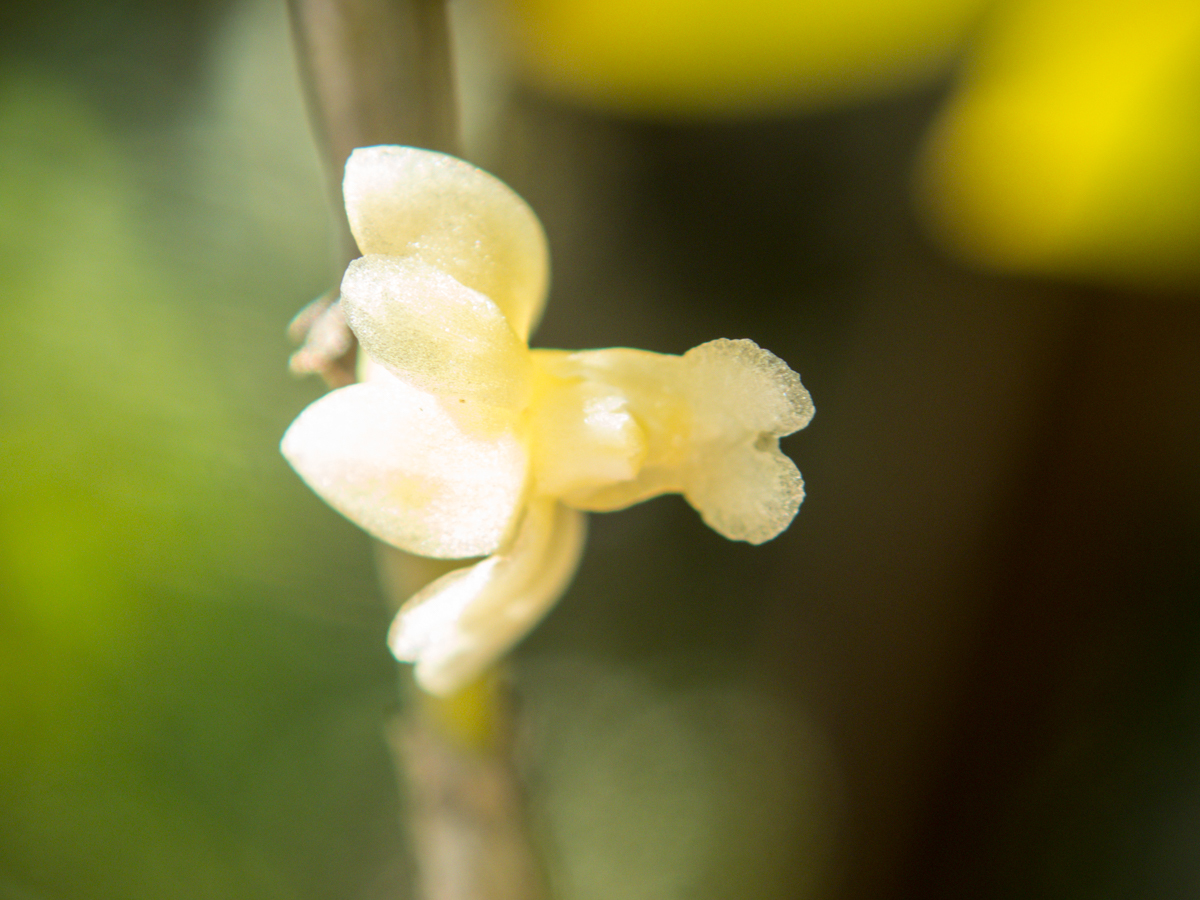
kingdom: Plantae
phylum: Tracheophyta
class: Liliopsida
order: Asparagales
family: Orchidaceae
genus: Dendrobium
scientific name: Dendrobium aloifolium
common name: Aloe-like dendrobium
